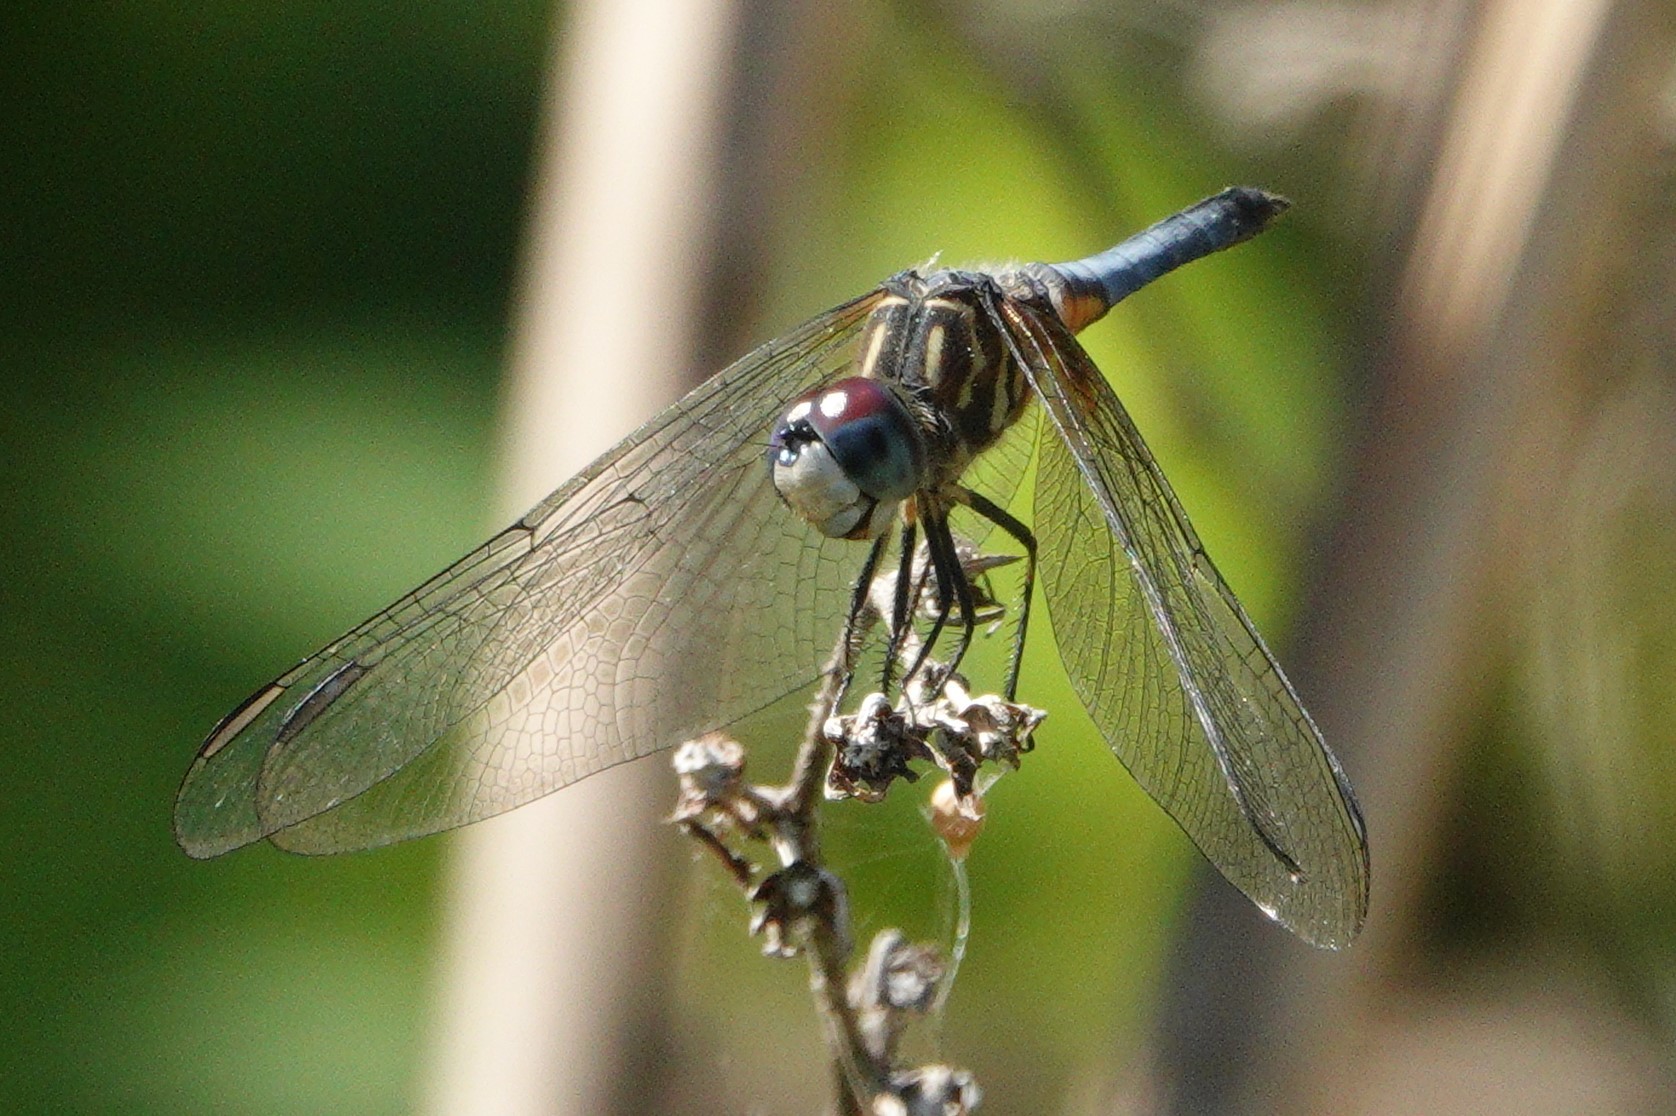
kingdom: Animalia
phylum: Arthropoda
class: Insecta
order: Odonata
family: Libellulidae
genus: Pachydiplax
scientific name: Pachydiplax longipennis
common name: Blue dasher
